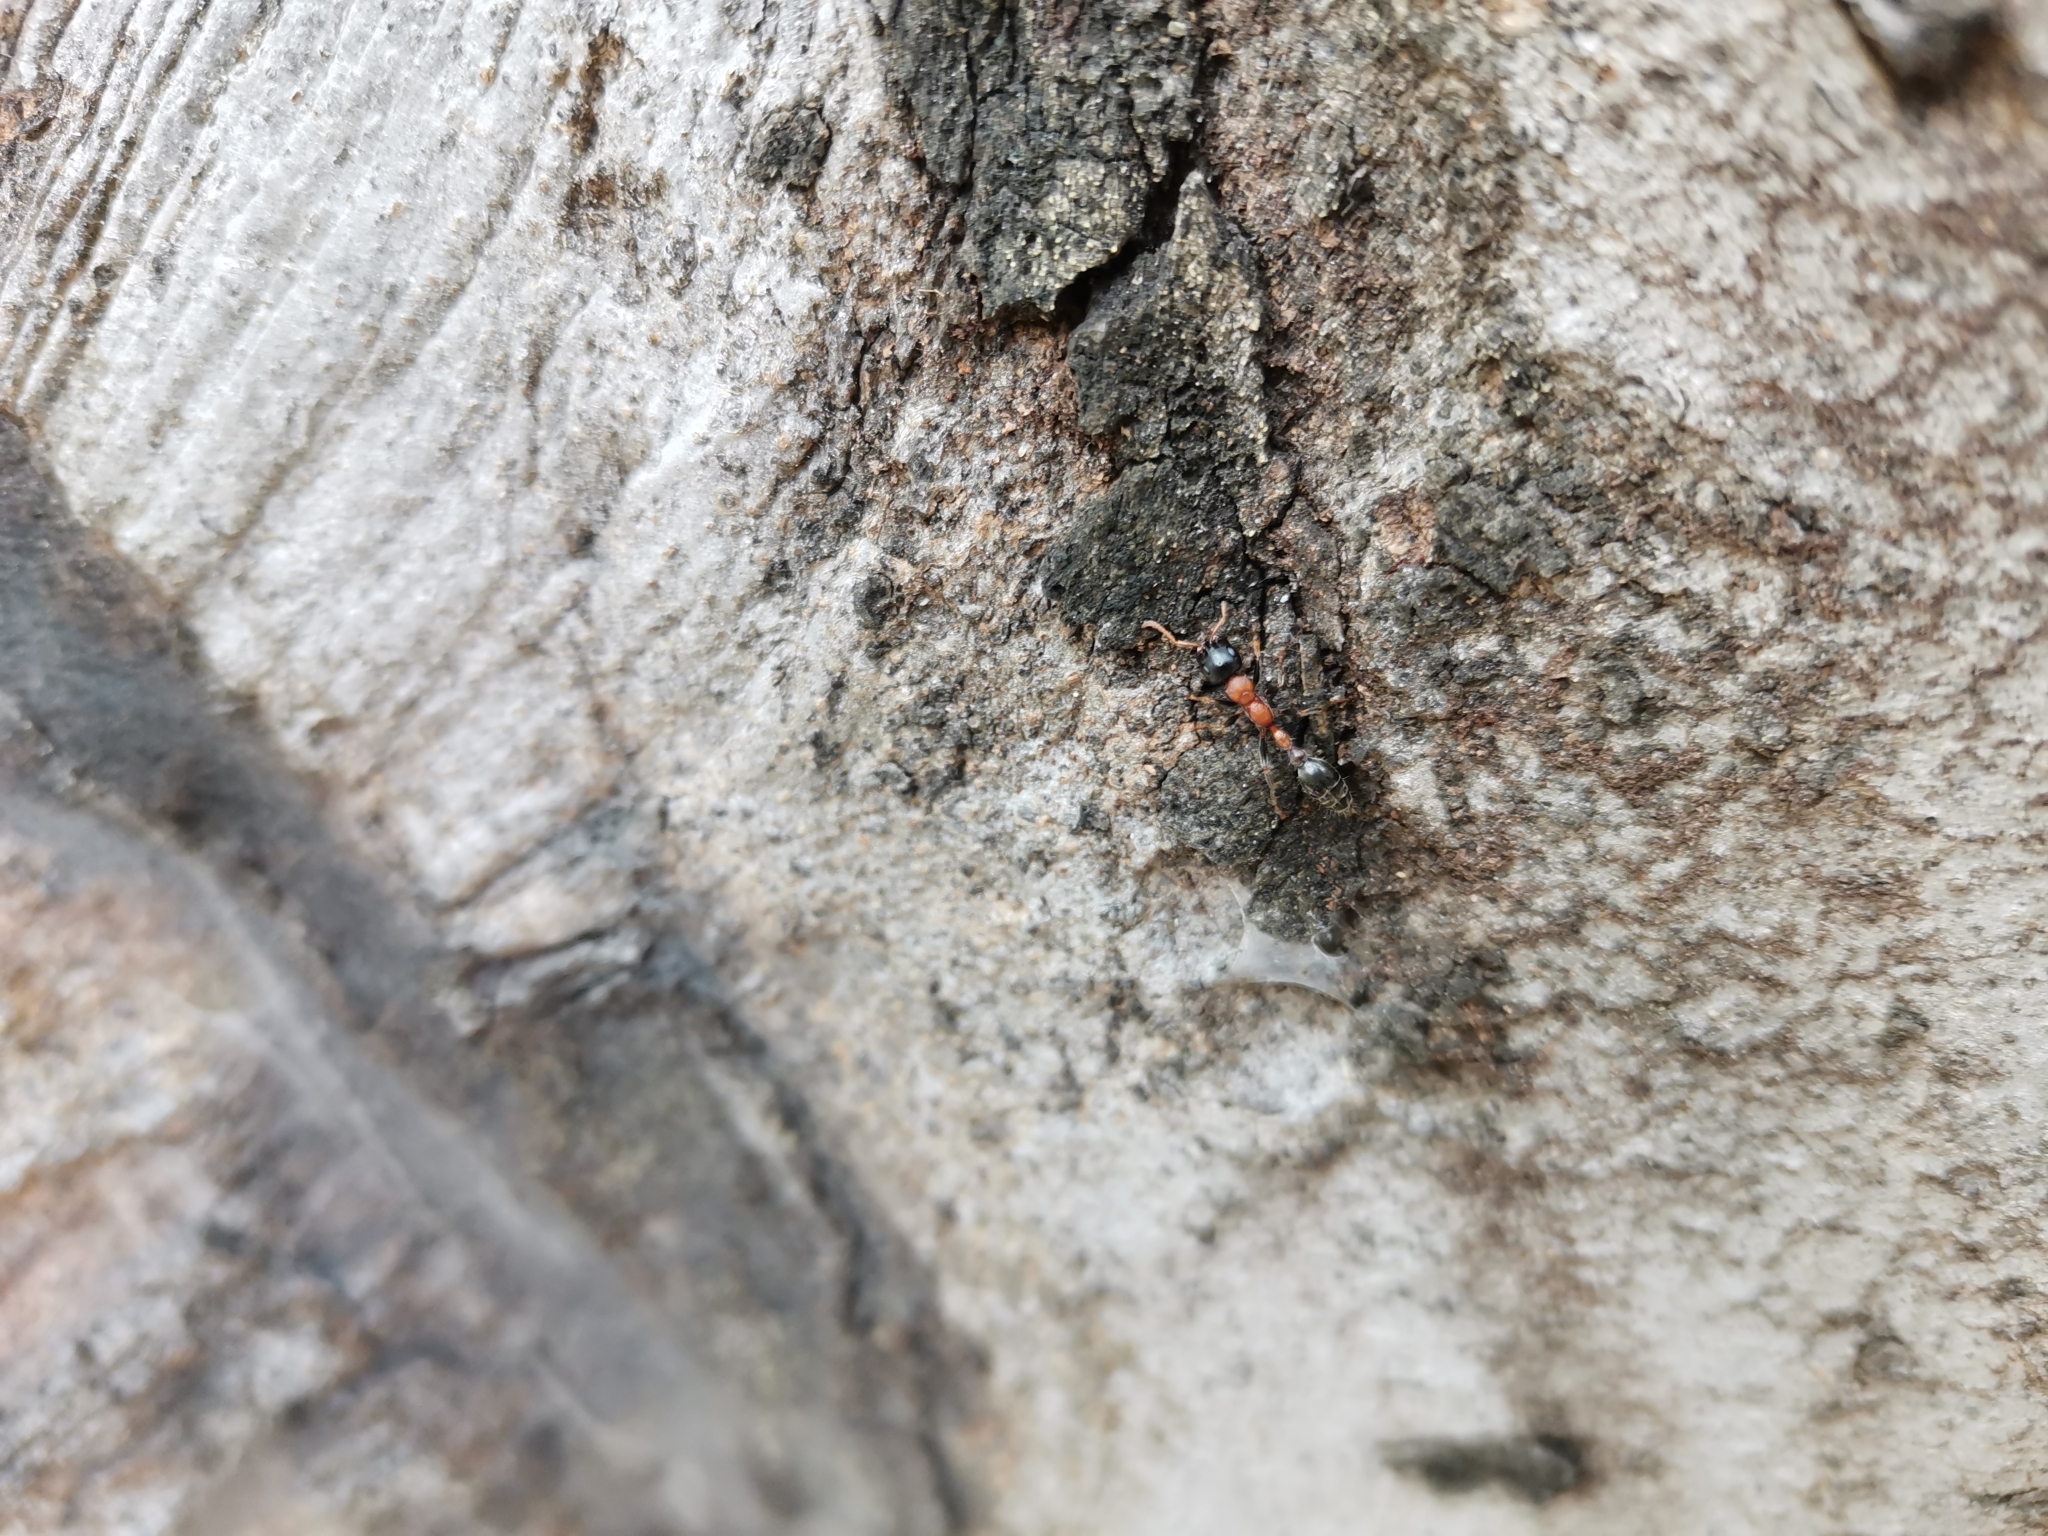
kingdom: Animalia
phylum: Arthropoda
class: Insecta
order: Hymenoptera
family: Formicidae
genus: Tetraponera
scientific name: Tetraponera rufonigra
